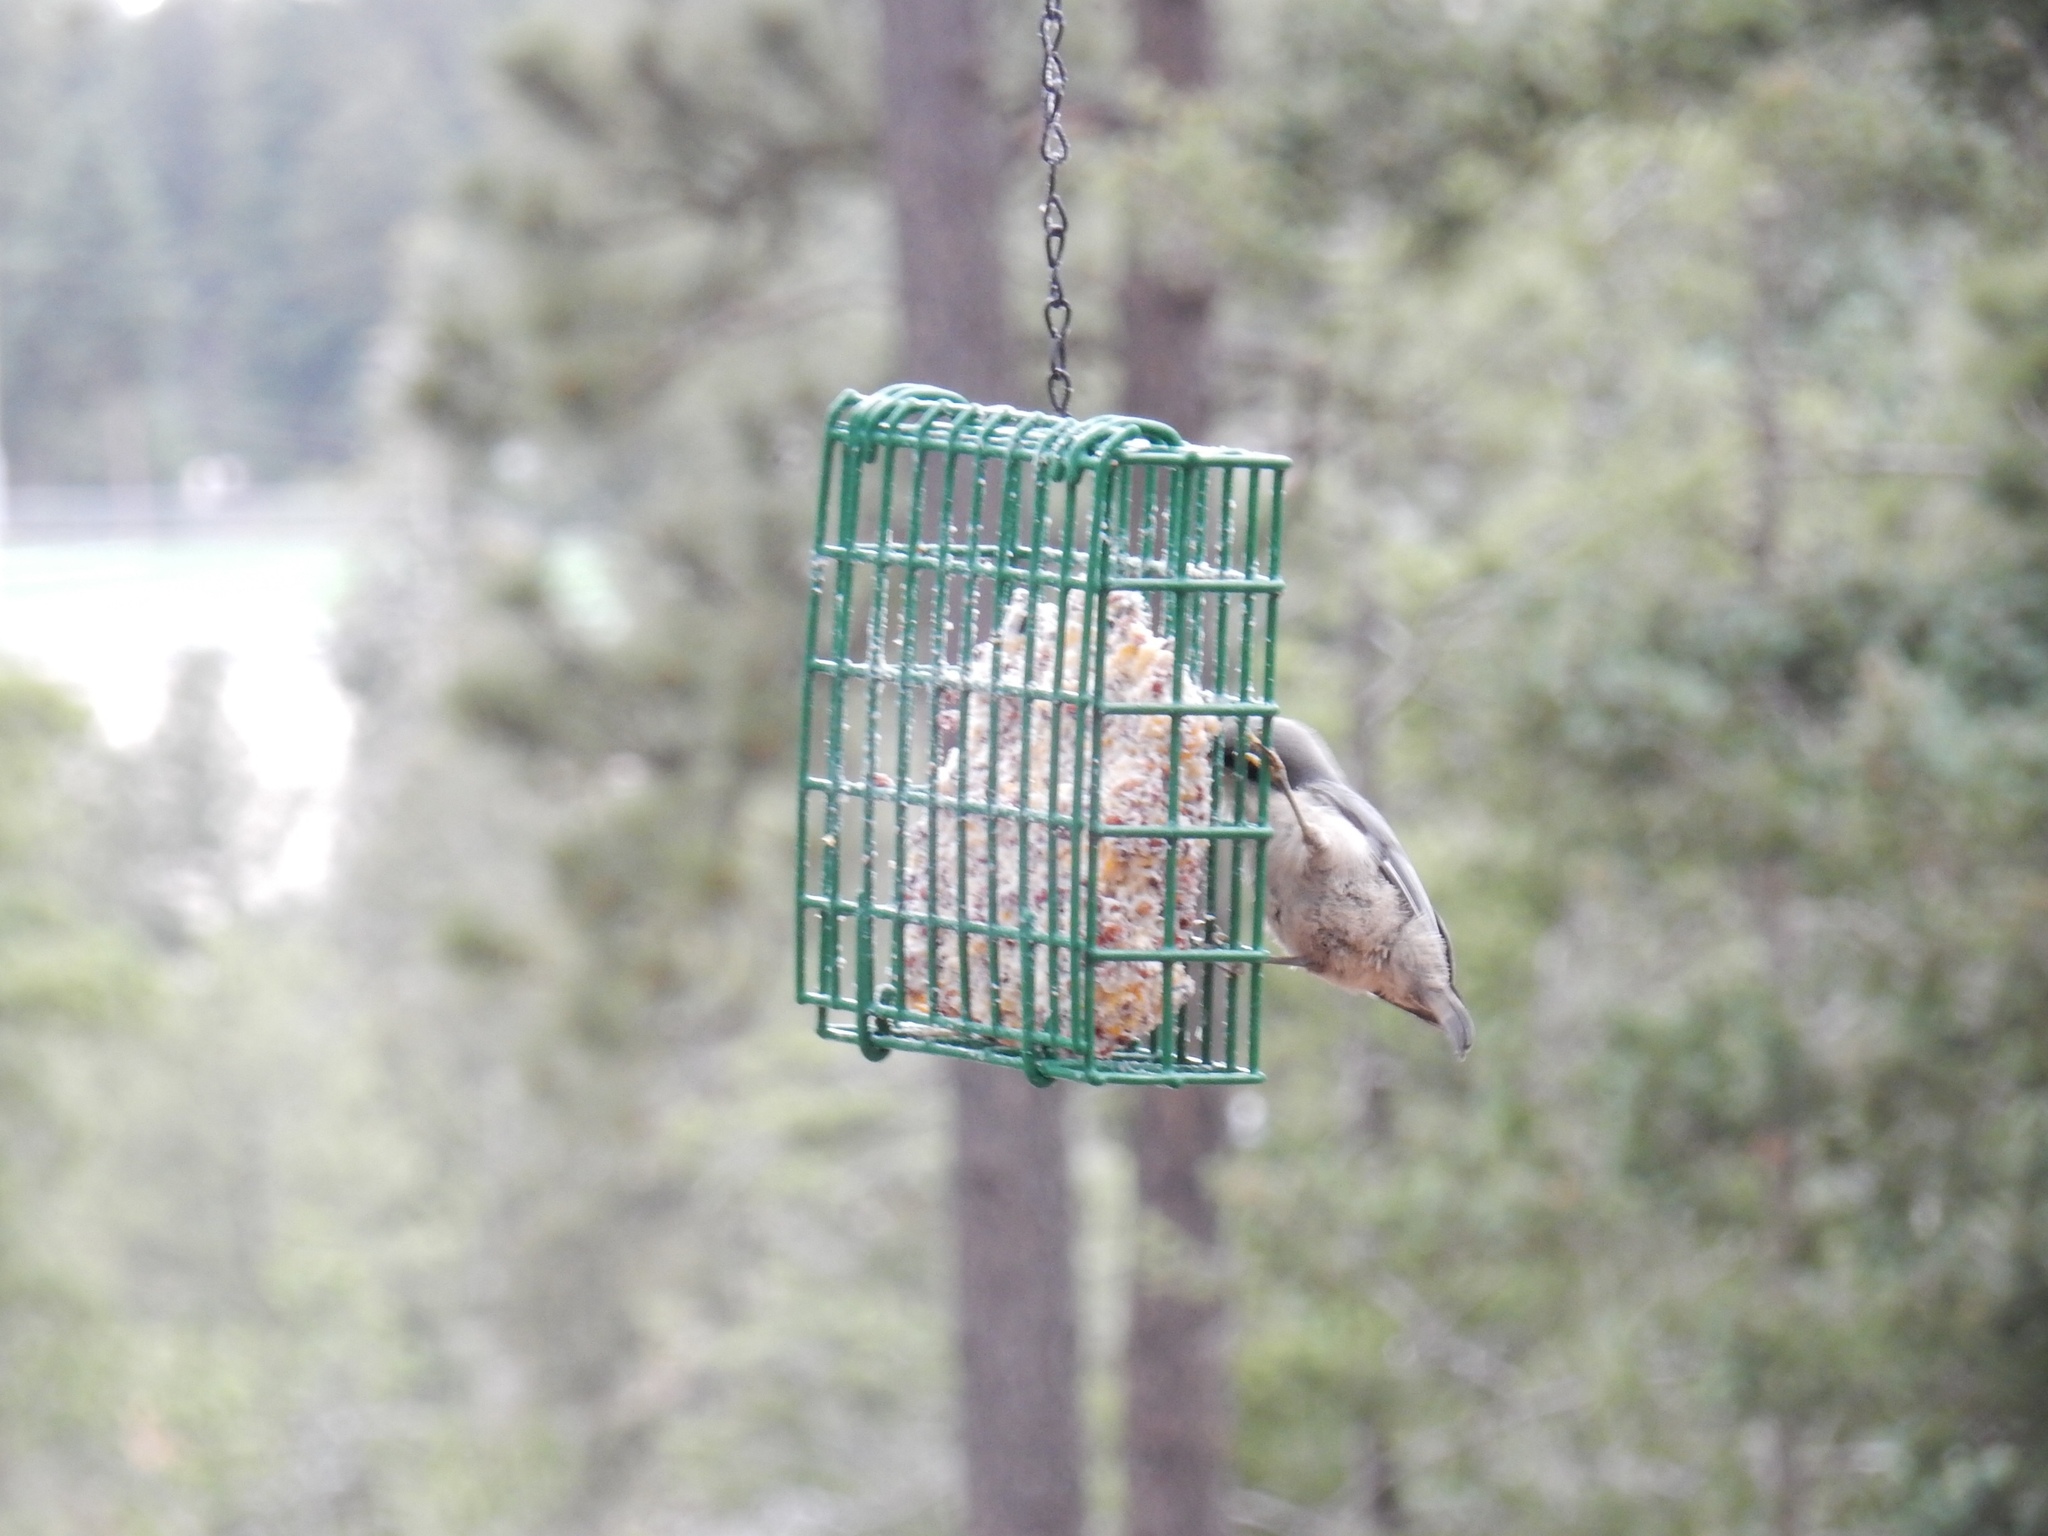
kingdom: Animalia
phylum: Chordata
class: Aves
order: Passeriformes
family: Sittidae
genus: Sitta
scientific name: Sitta pygmaea
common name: Pygmy nuthatch
